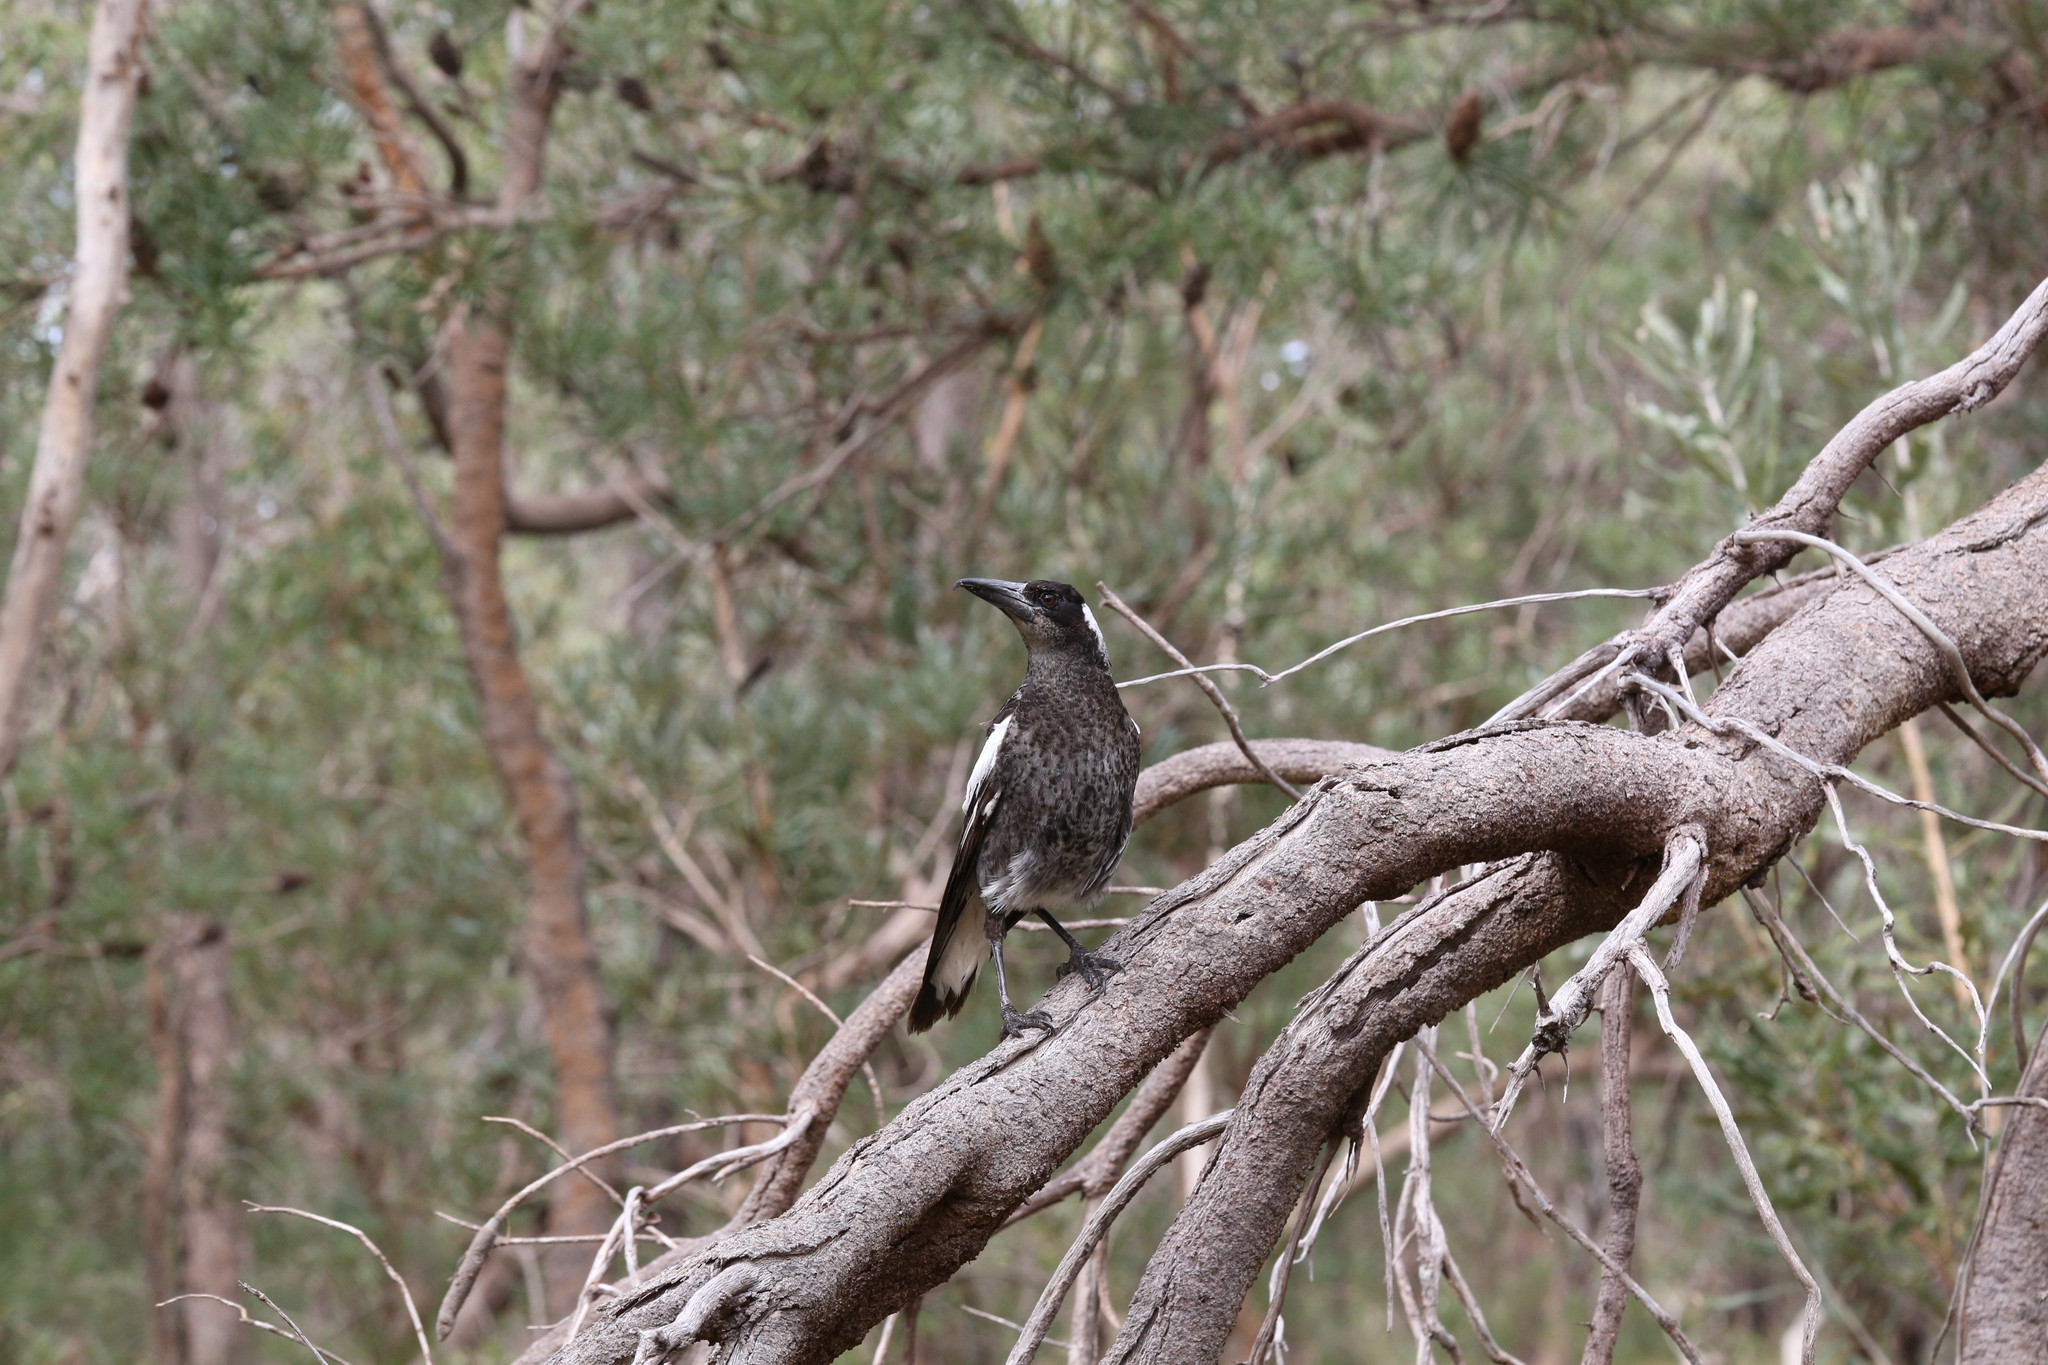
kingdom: Animalia
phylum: Chordata
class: Aves
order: Passeriformes
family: Cracticidae
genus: Gymnorhina
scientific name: Gymnorhina tibicen
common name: Australian magpie
